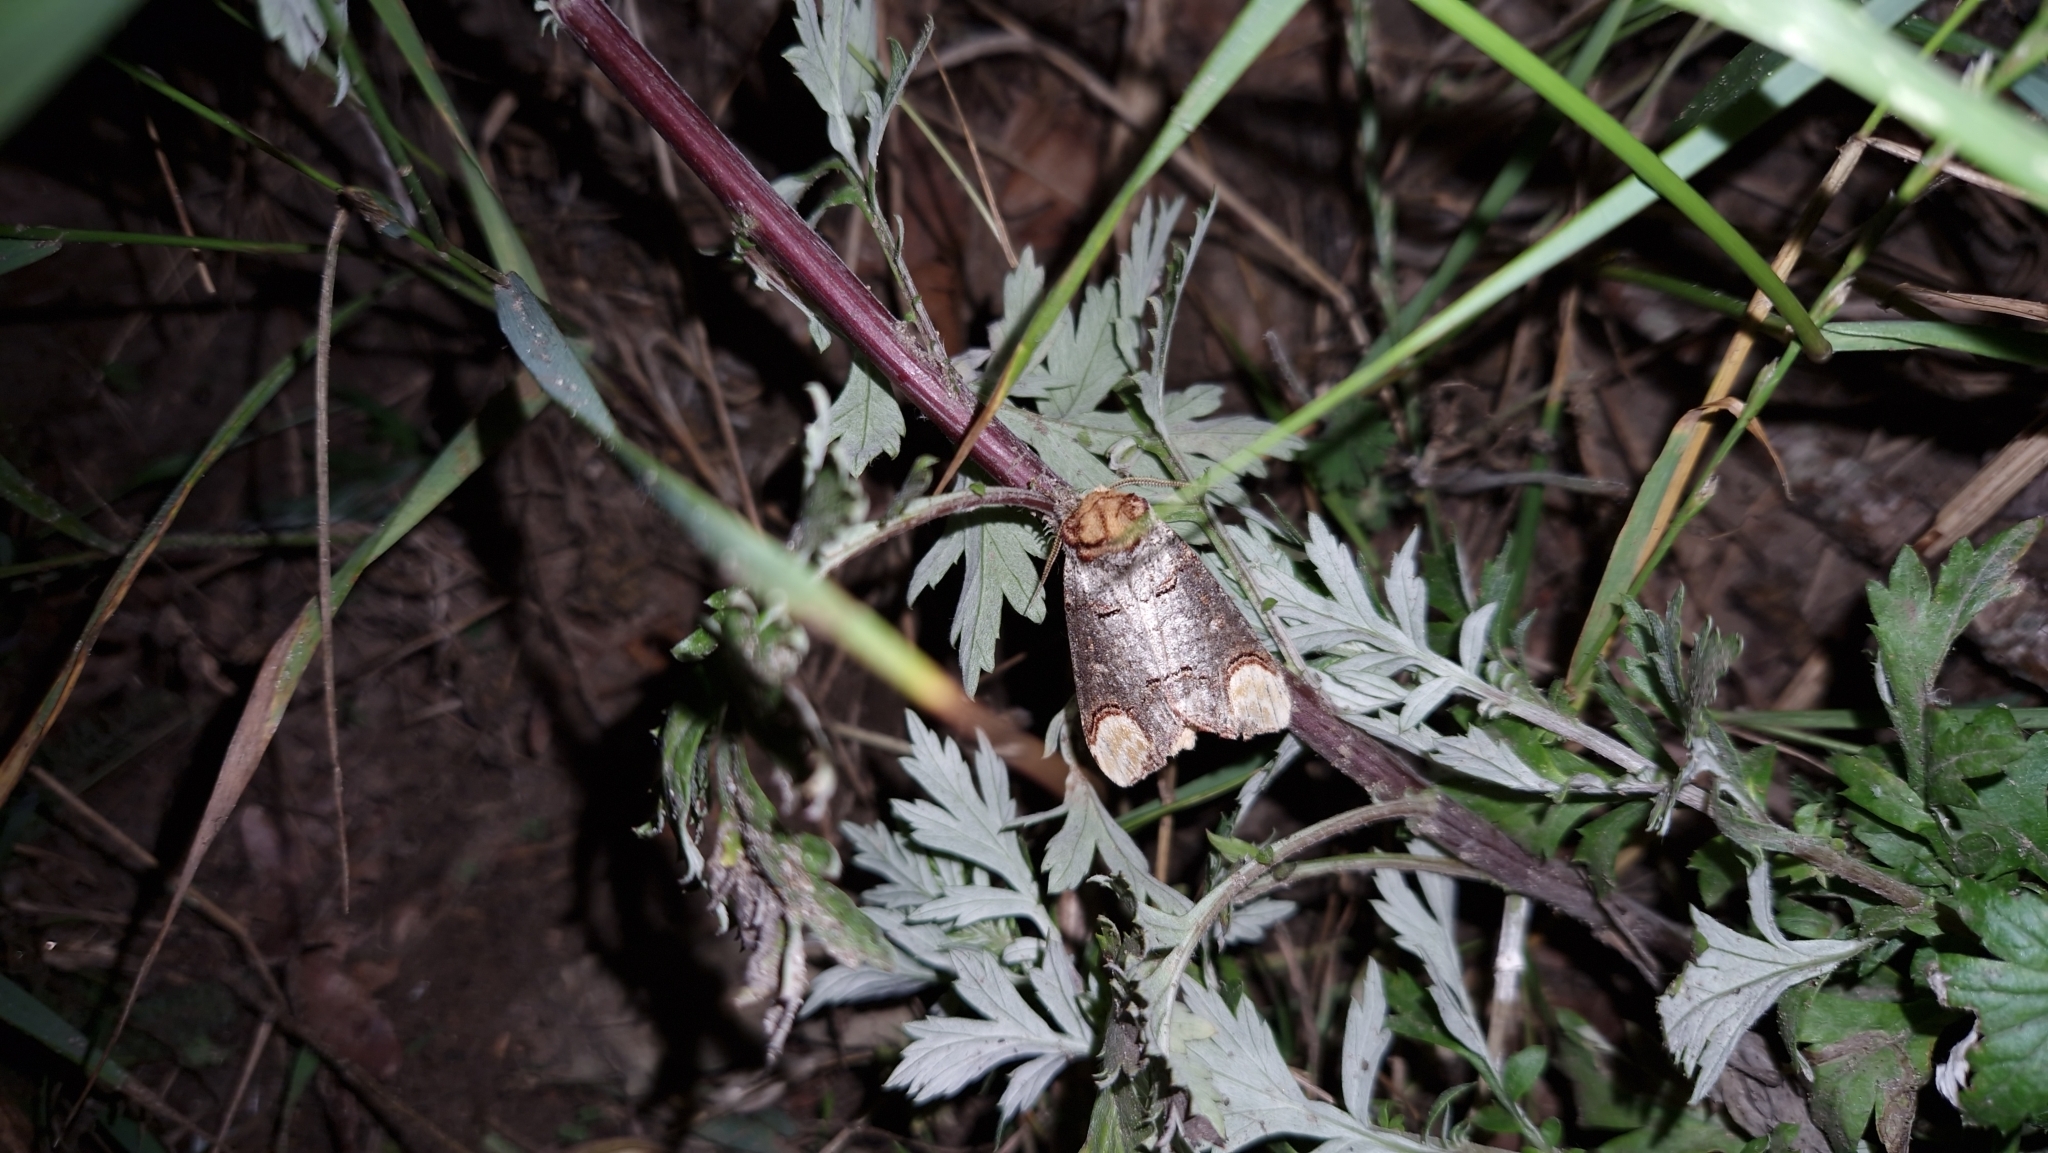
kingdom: Animalia
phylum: Arthropoda
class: Insecta
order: Lepidoptera
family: Notodontidae
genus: Phalera
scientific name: Phalera bucephala
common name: Buff-tip
